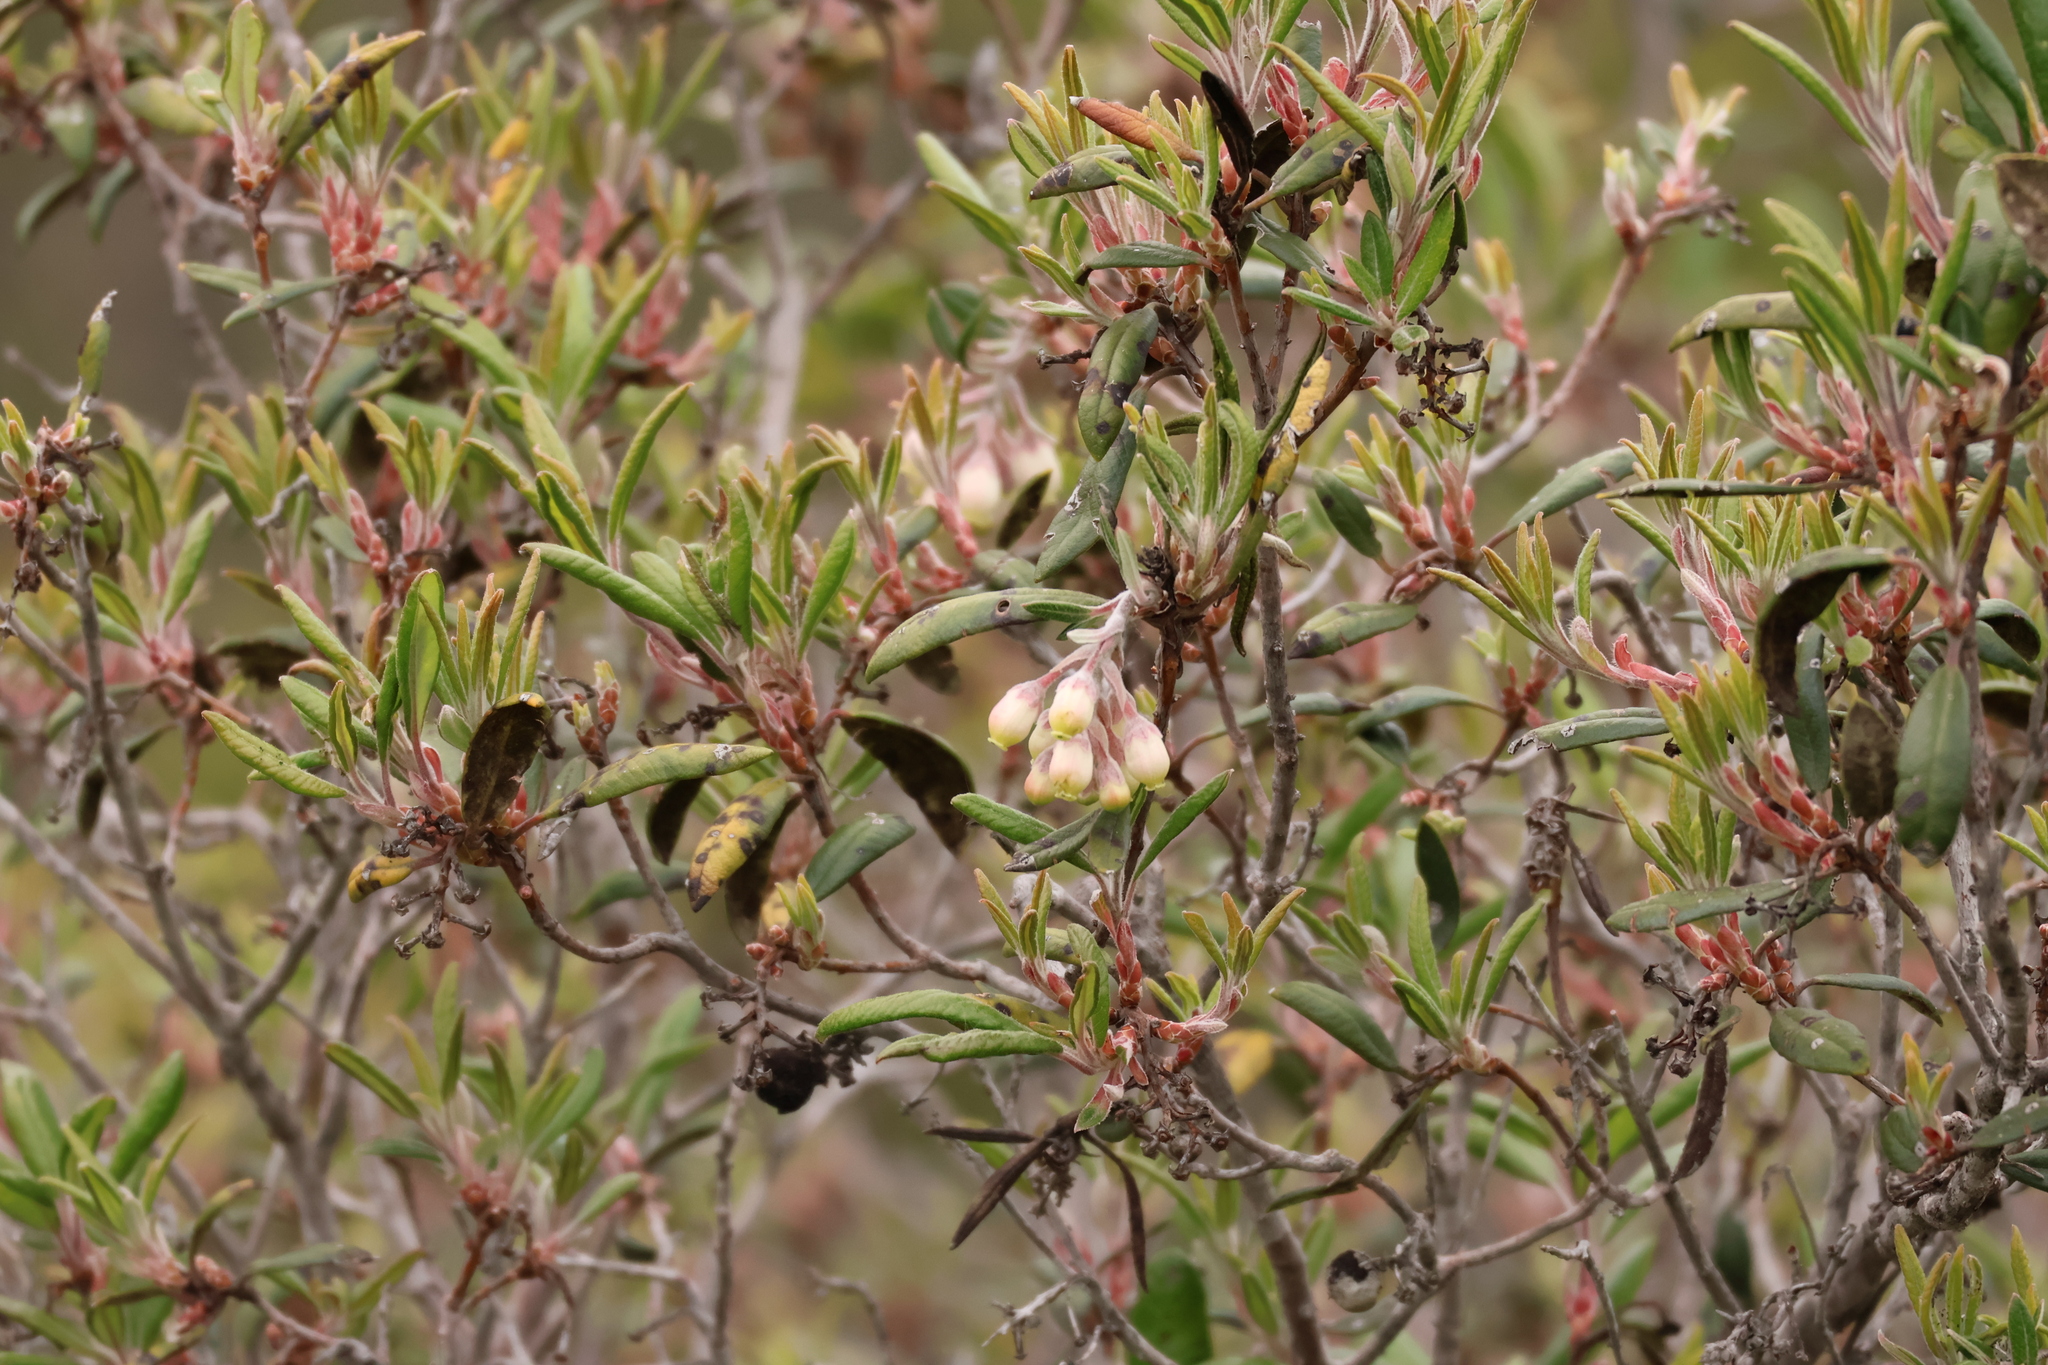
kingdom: Plantae
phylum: Tracheophyta
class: Magnoliopsida
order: Ericales
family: Ericaceae
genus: Comarostaphylis
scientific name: Comarostaphylis diversifolia
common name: Summer-holly
